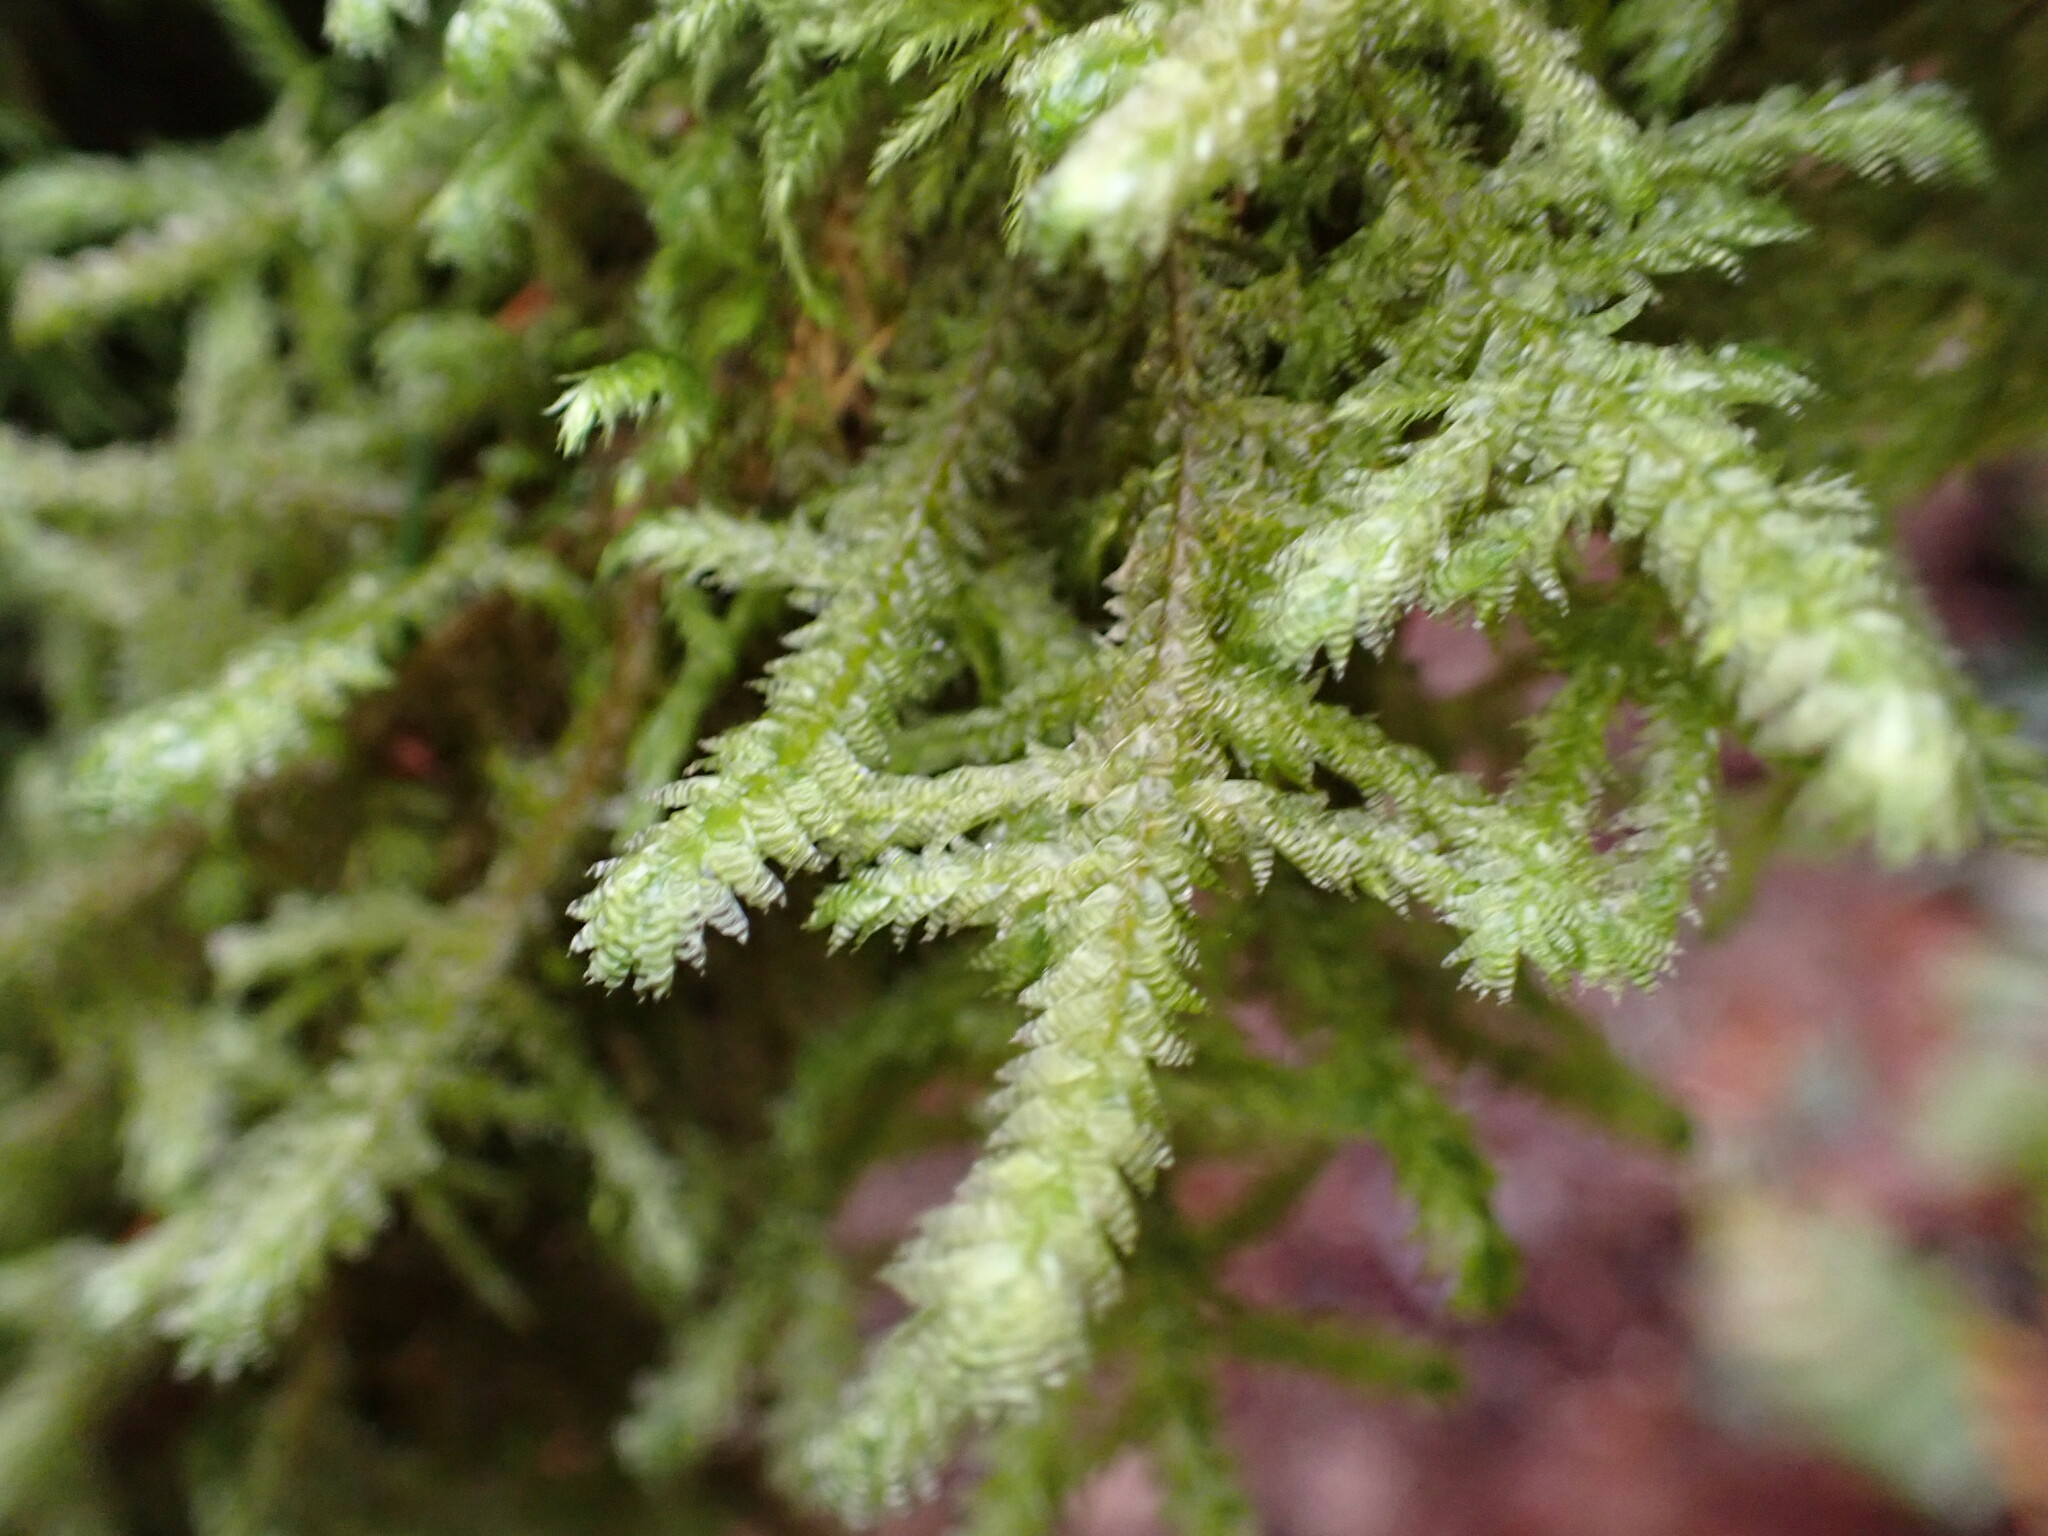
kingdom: Plantae
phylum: Bryophyta
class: Bryopsida
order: Hypnales
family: Neckeraceae
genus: Neckera
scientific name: Neckera douglasii
